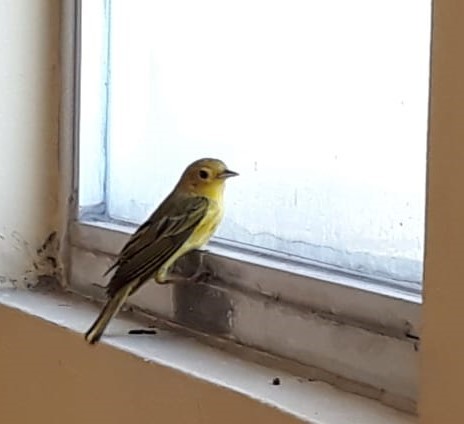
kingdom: Animalia
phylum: Chordata
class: Aves
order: Passeriformes
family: Parulidae
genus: Setophaga
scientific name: Setophaga petechia
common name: Yellow warbler
